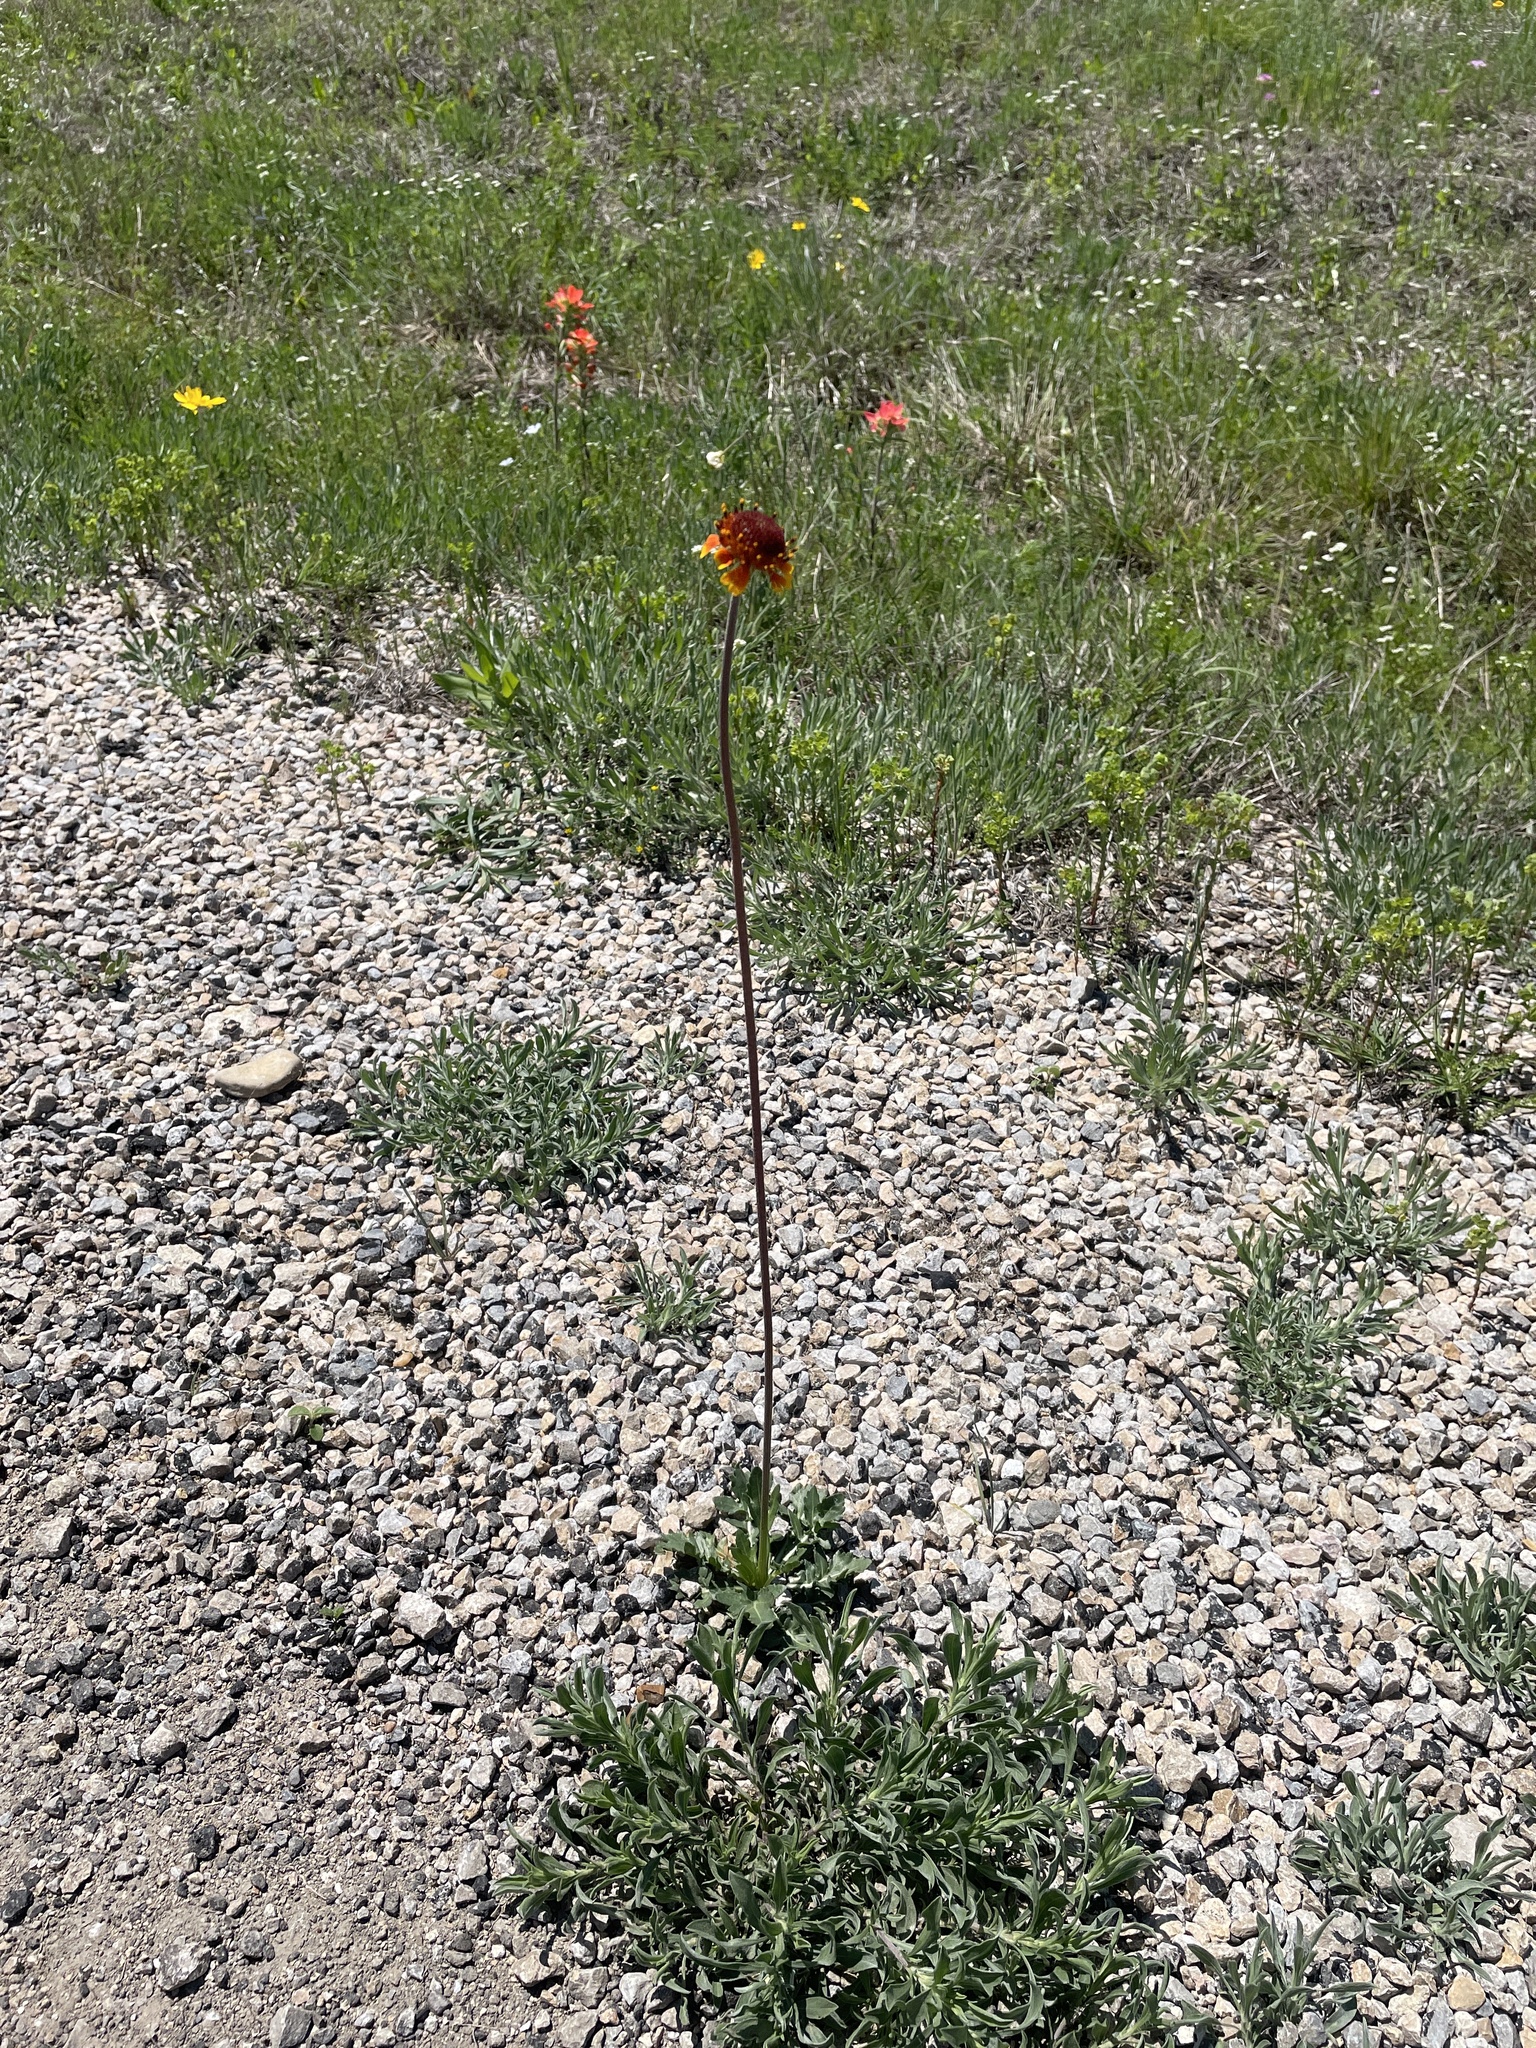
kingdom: Plantae
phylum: Tracheophyta
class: Magnoliopsida
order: Asterales
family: Asteraceae
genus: Gaillardia
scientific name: Gaillardia suavis
